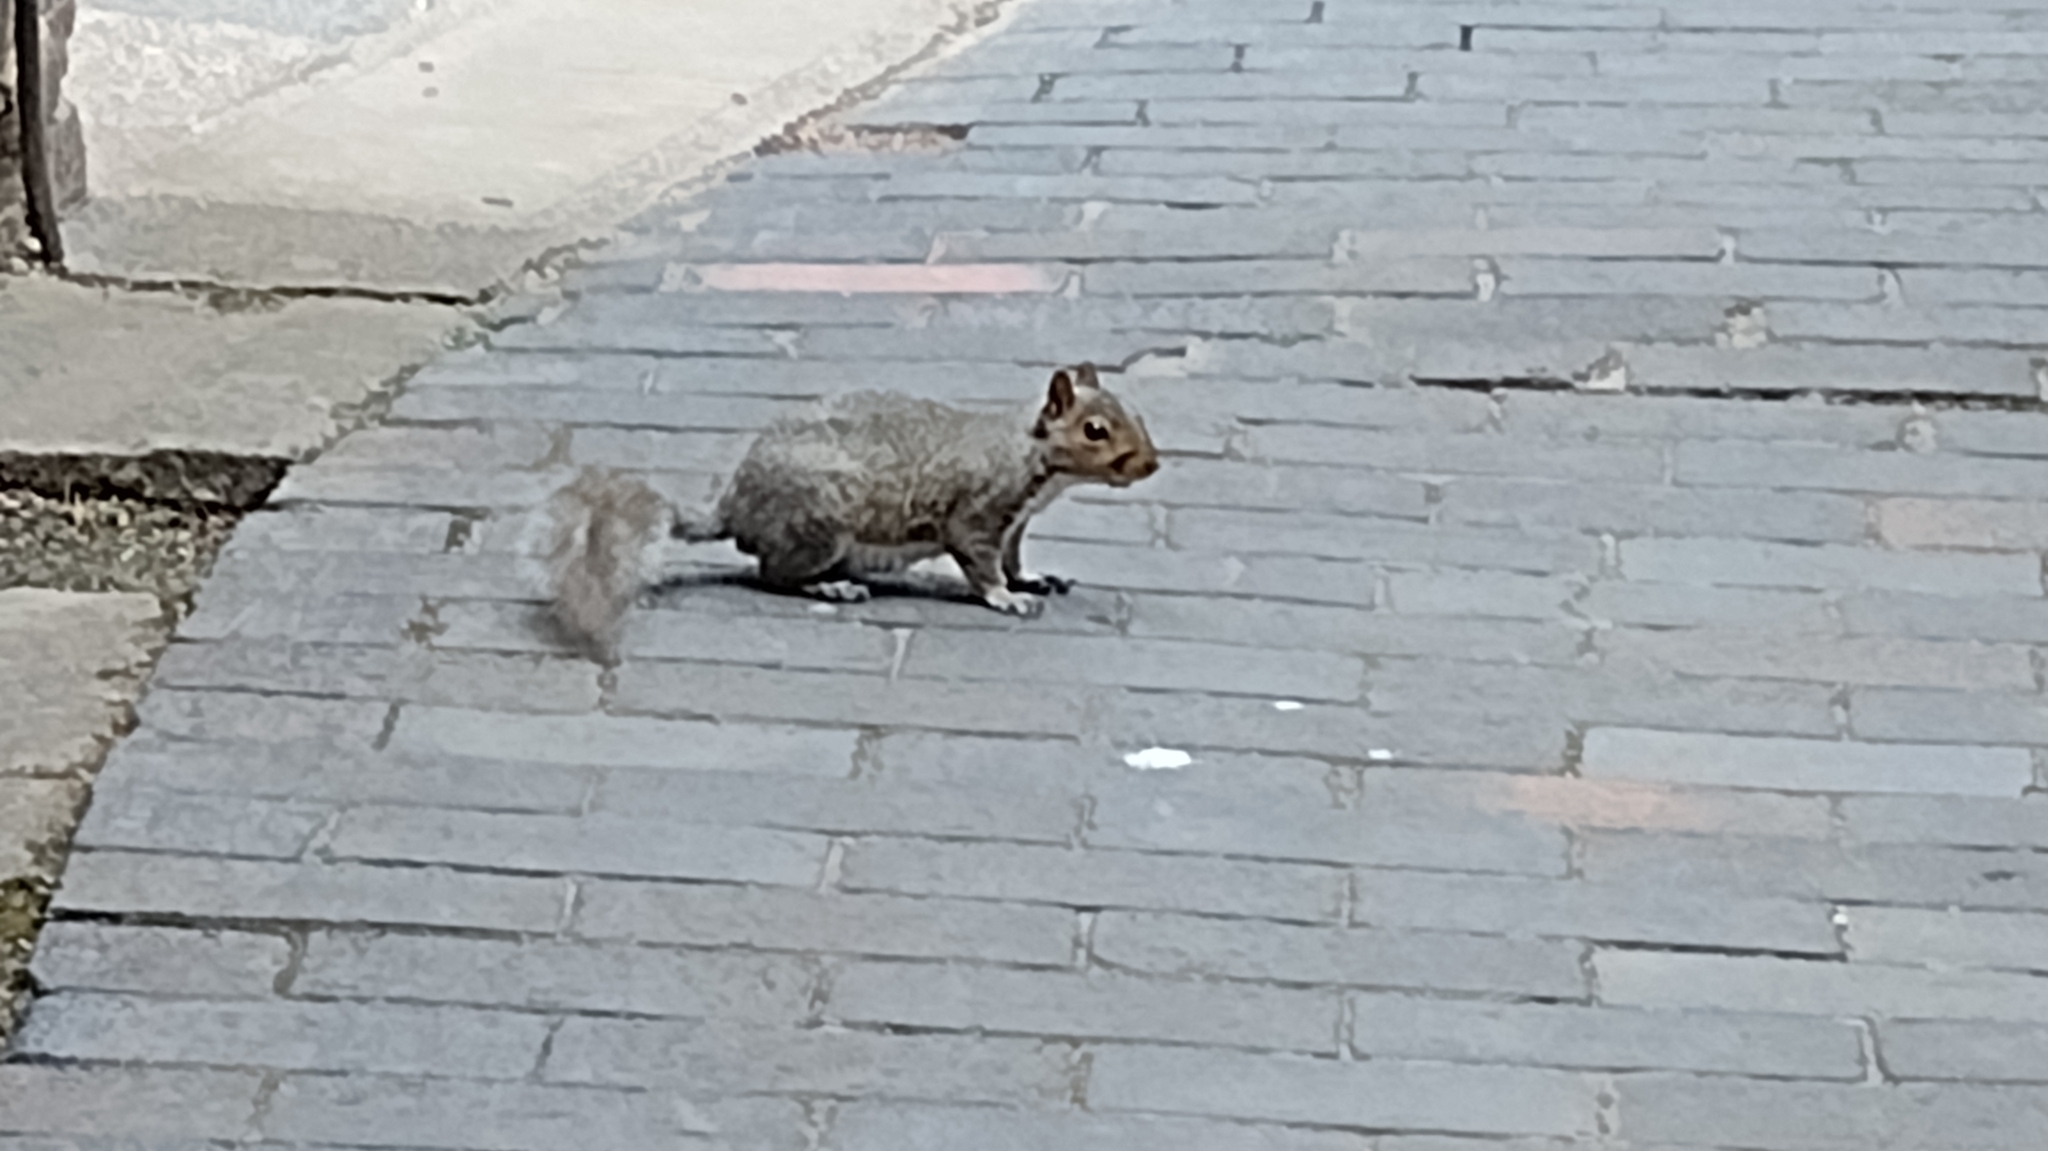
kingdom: Animalia
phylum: Chordata
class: Mammalia
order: Rodentia
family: Sciuridae
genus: Sciurus
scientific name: Sciurus carolinensis
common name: Eastern gray squirrel
